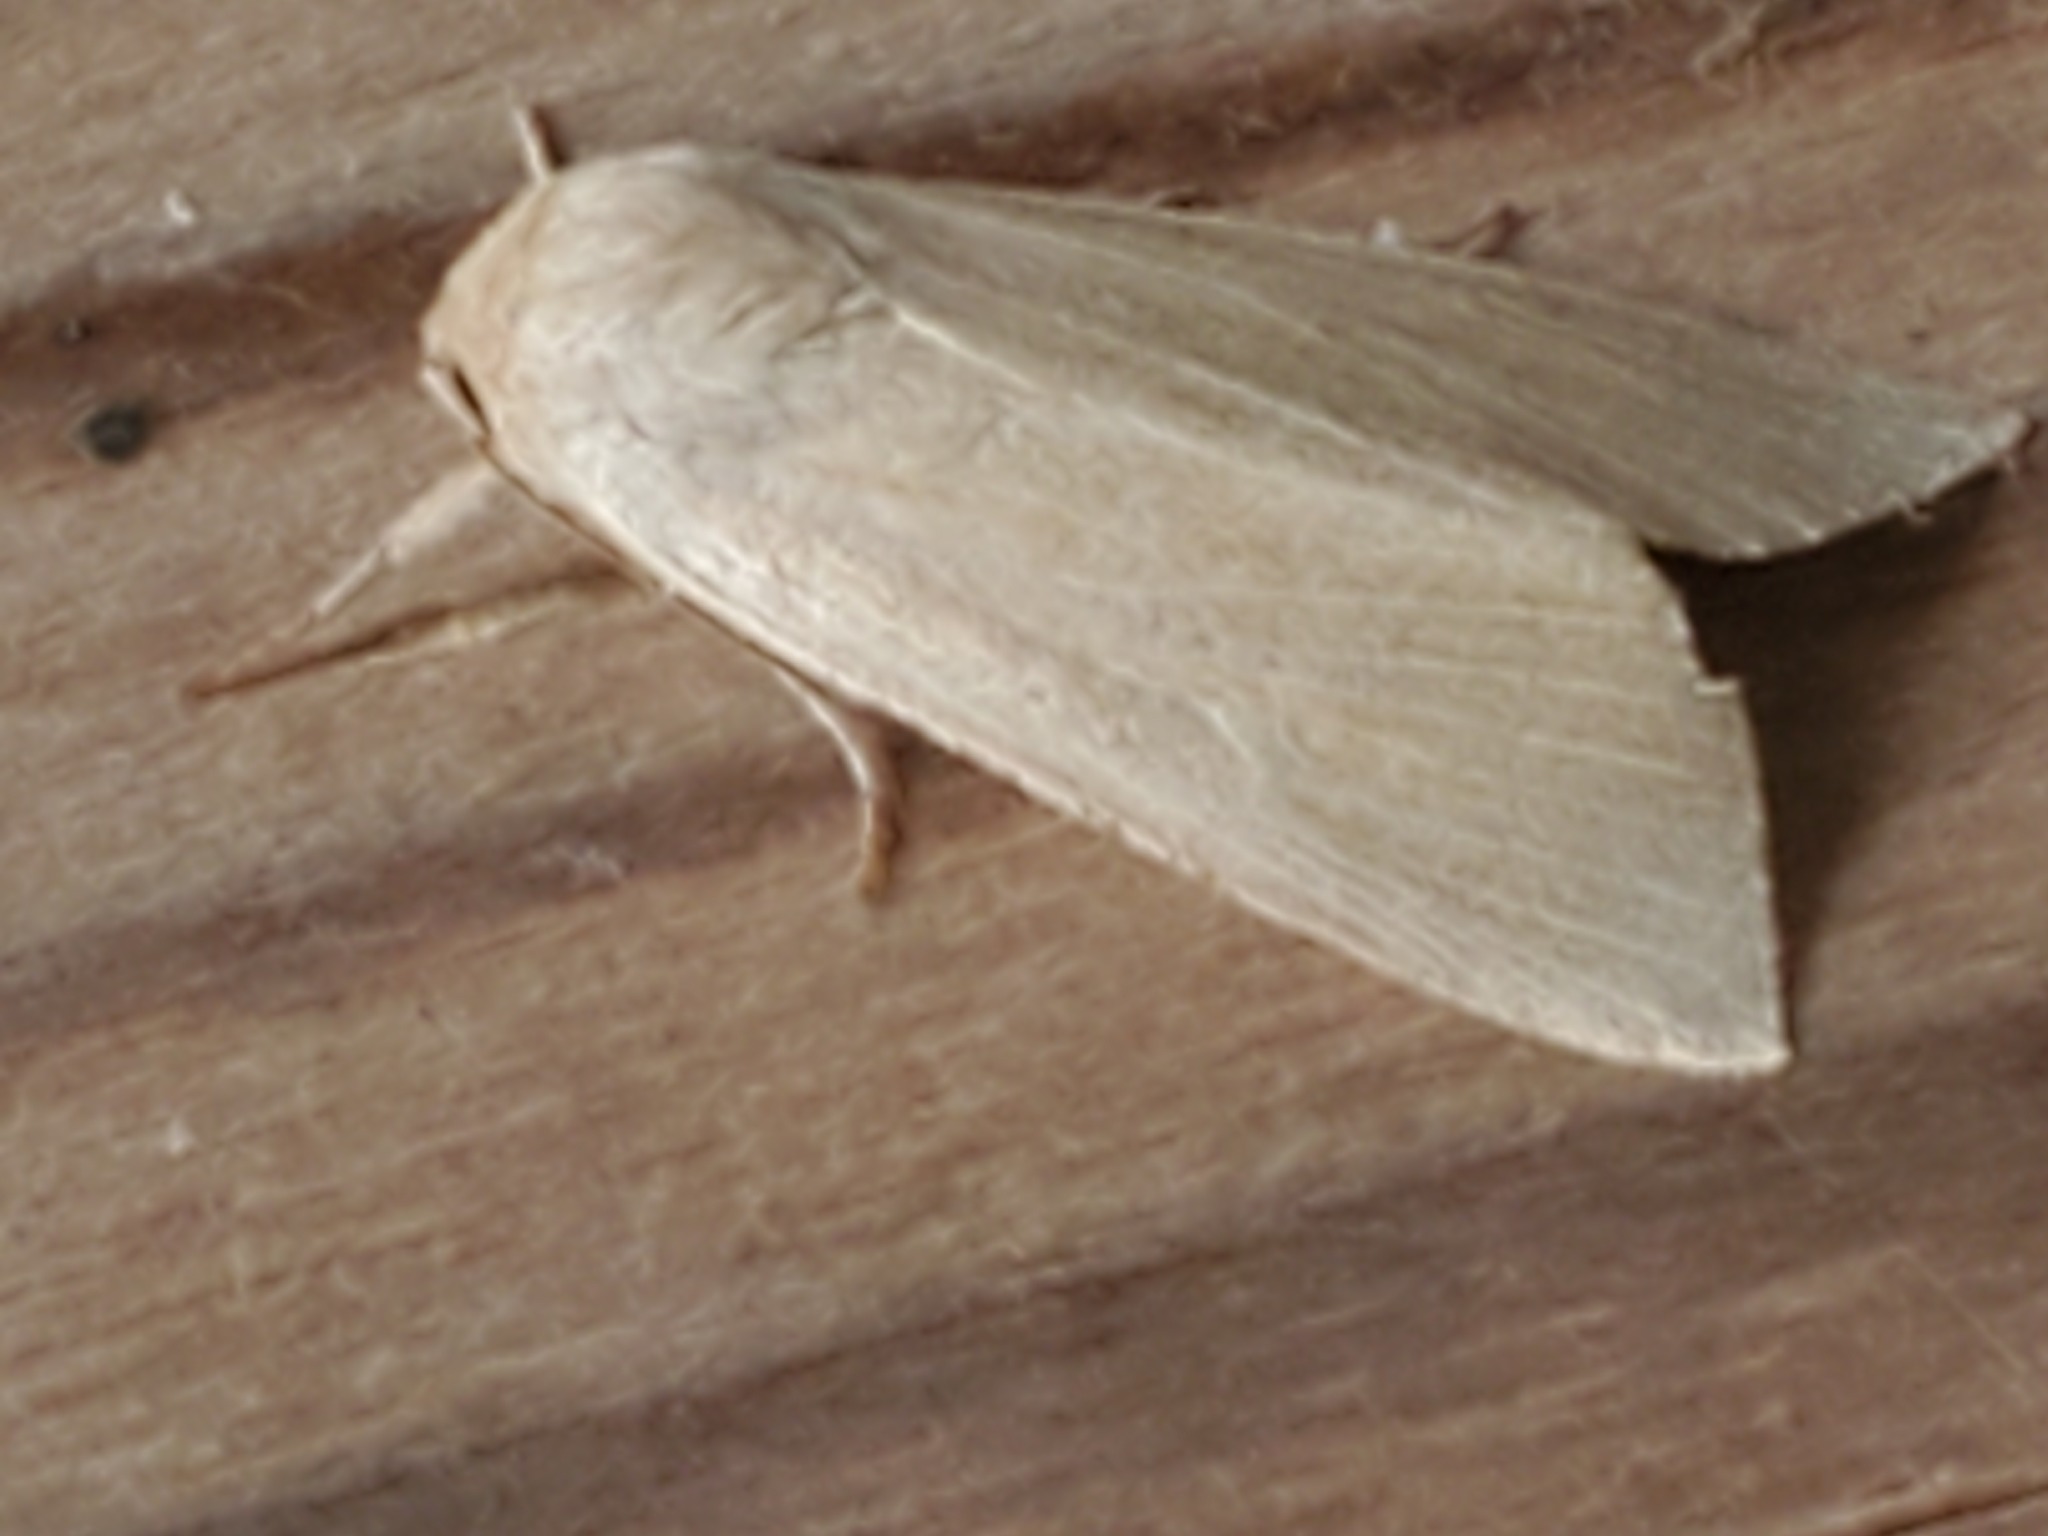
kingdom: Animalia
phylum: Arthropoda
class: Insecta
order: Lepidoptera
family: Noctuidae
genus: Acronicta
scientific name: Acronicta insularis
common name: Henry's marsh moth
